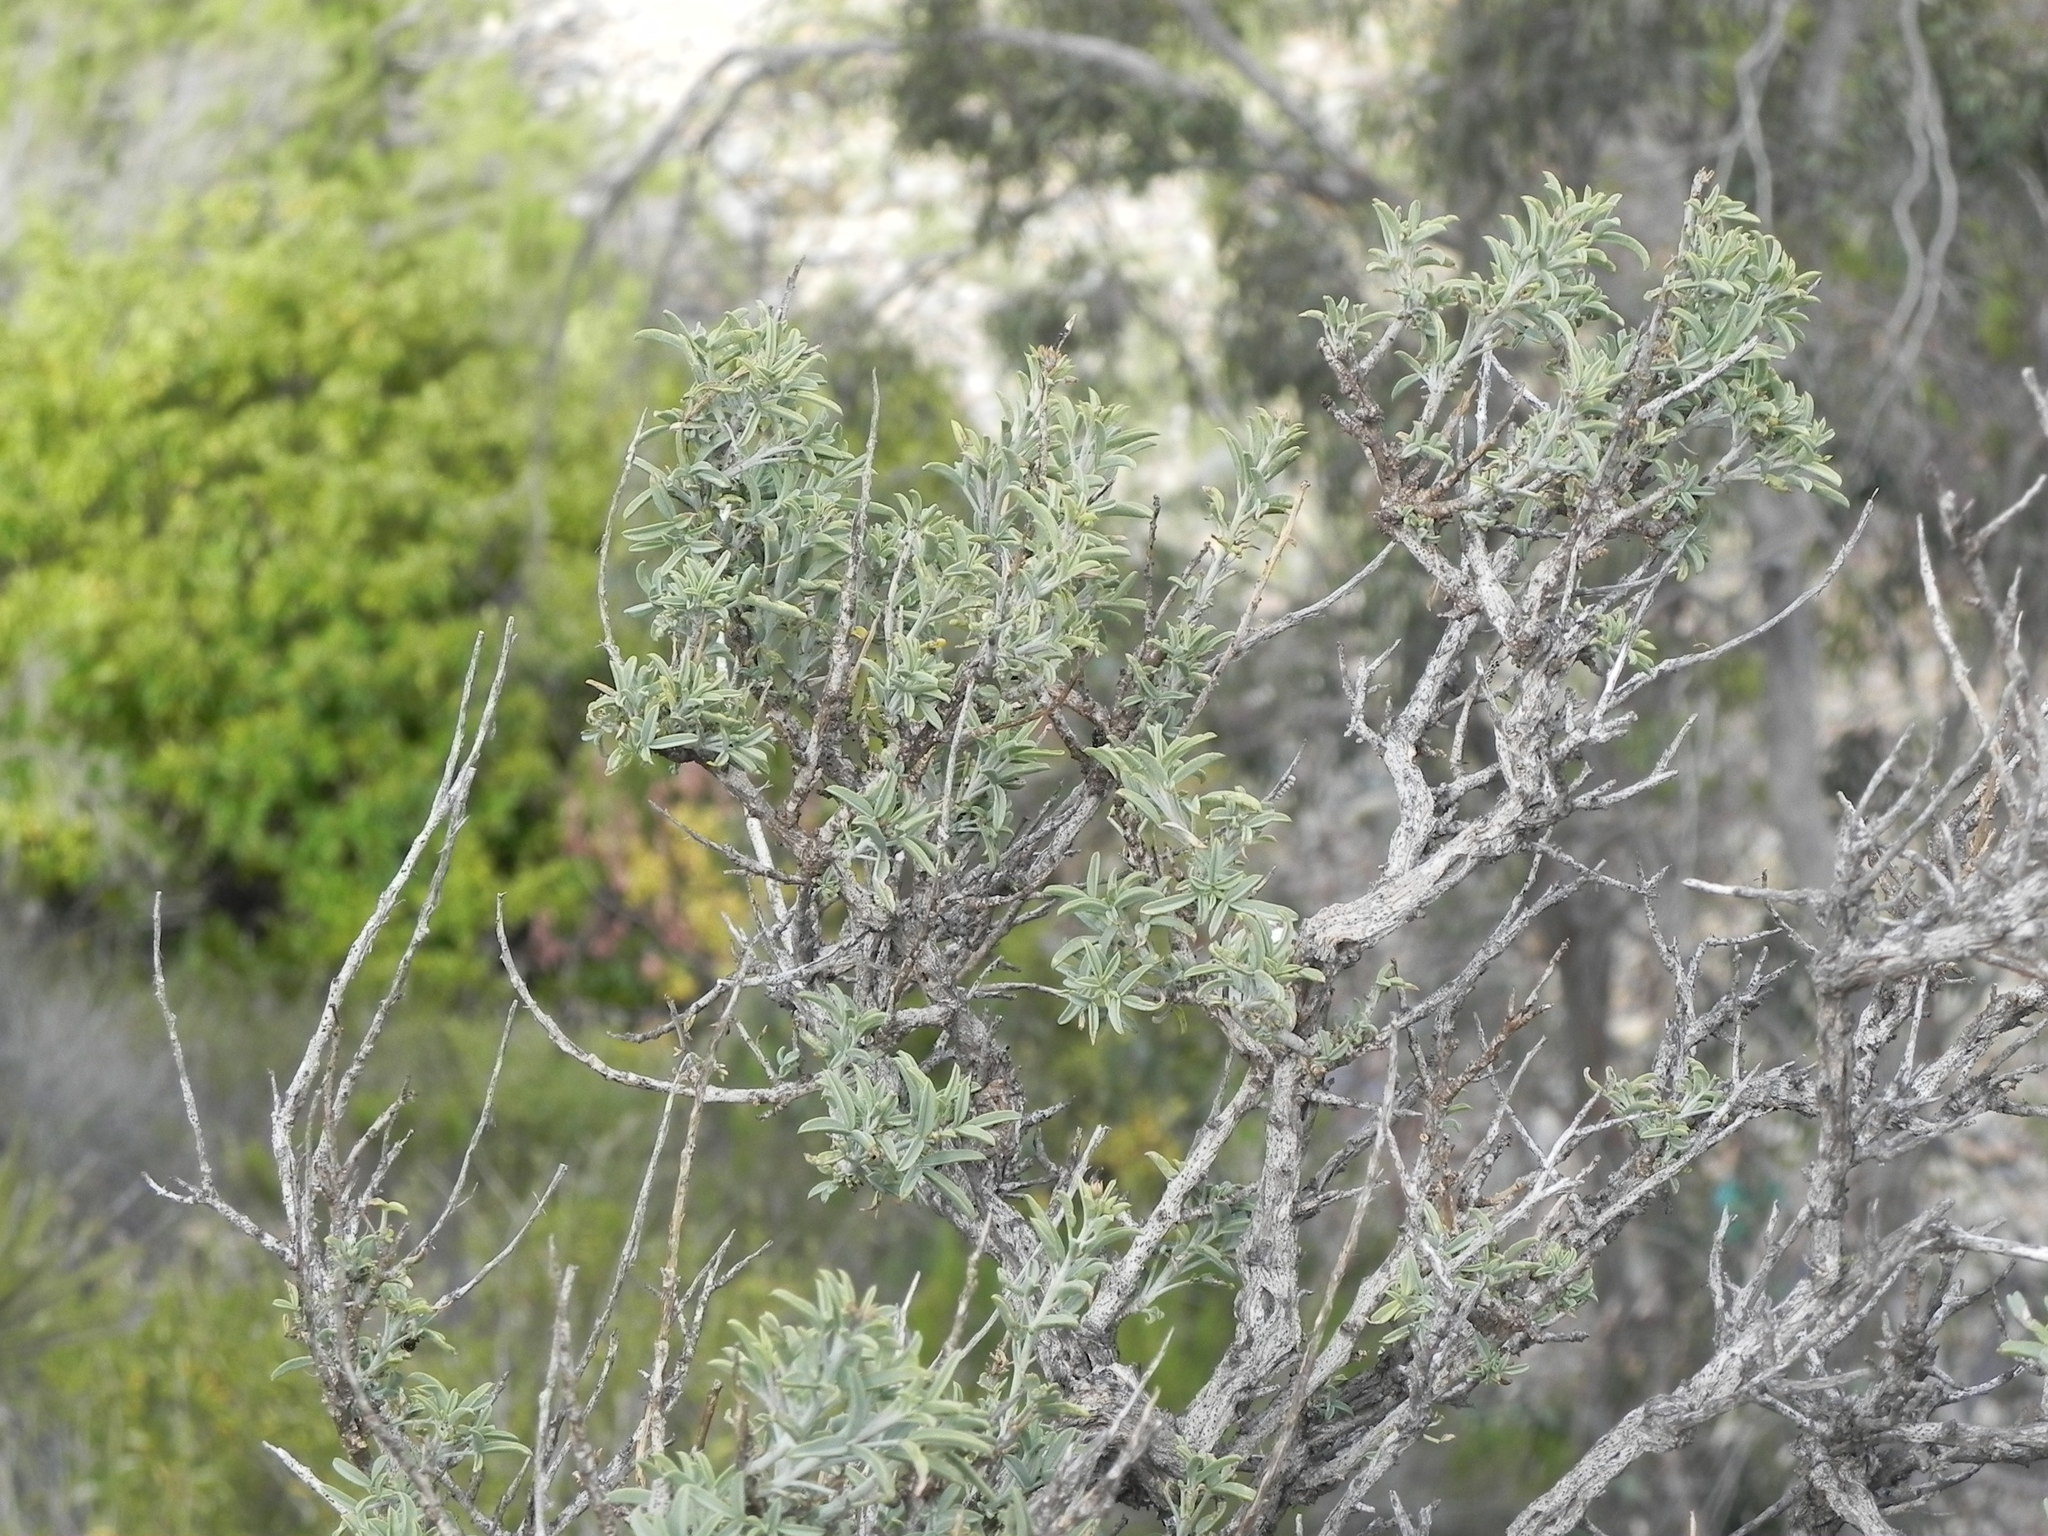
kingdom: Plantae
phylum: Tracheophyta
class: Magnoliopsida
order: Brassicales
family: Cleomaceae
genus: Cleomella
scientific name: Cleomella arborea
